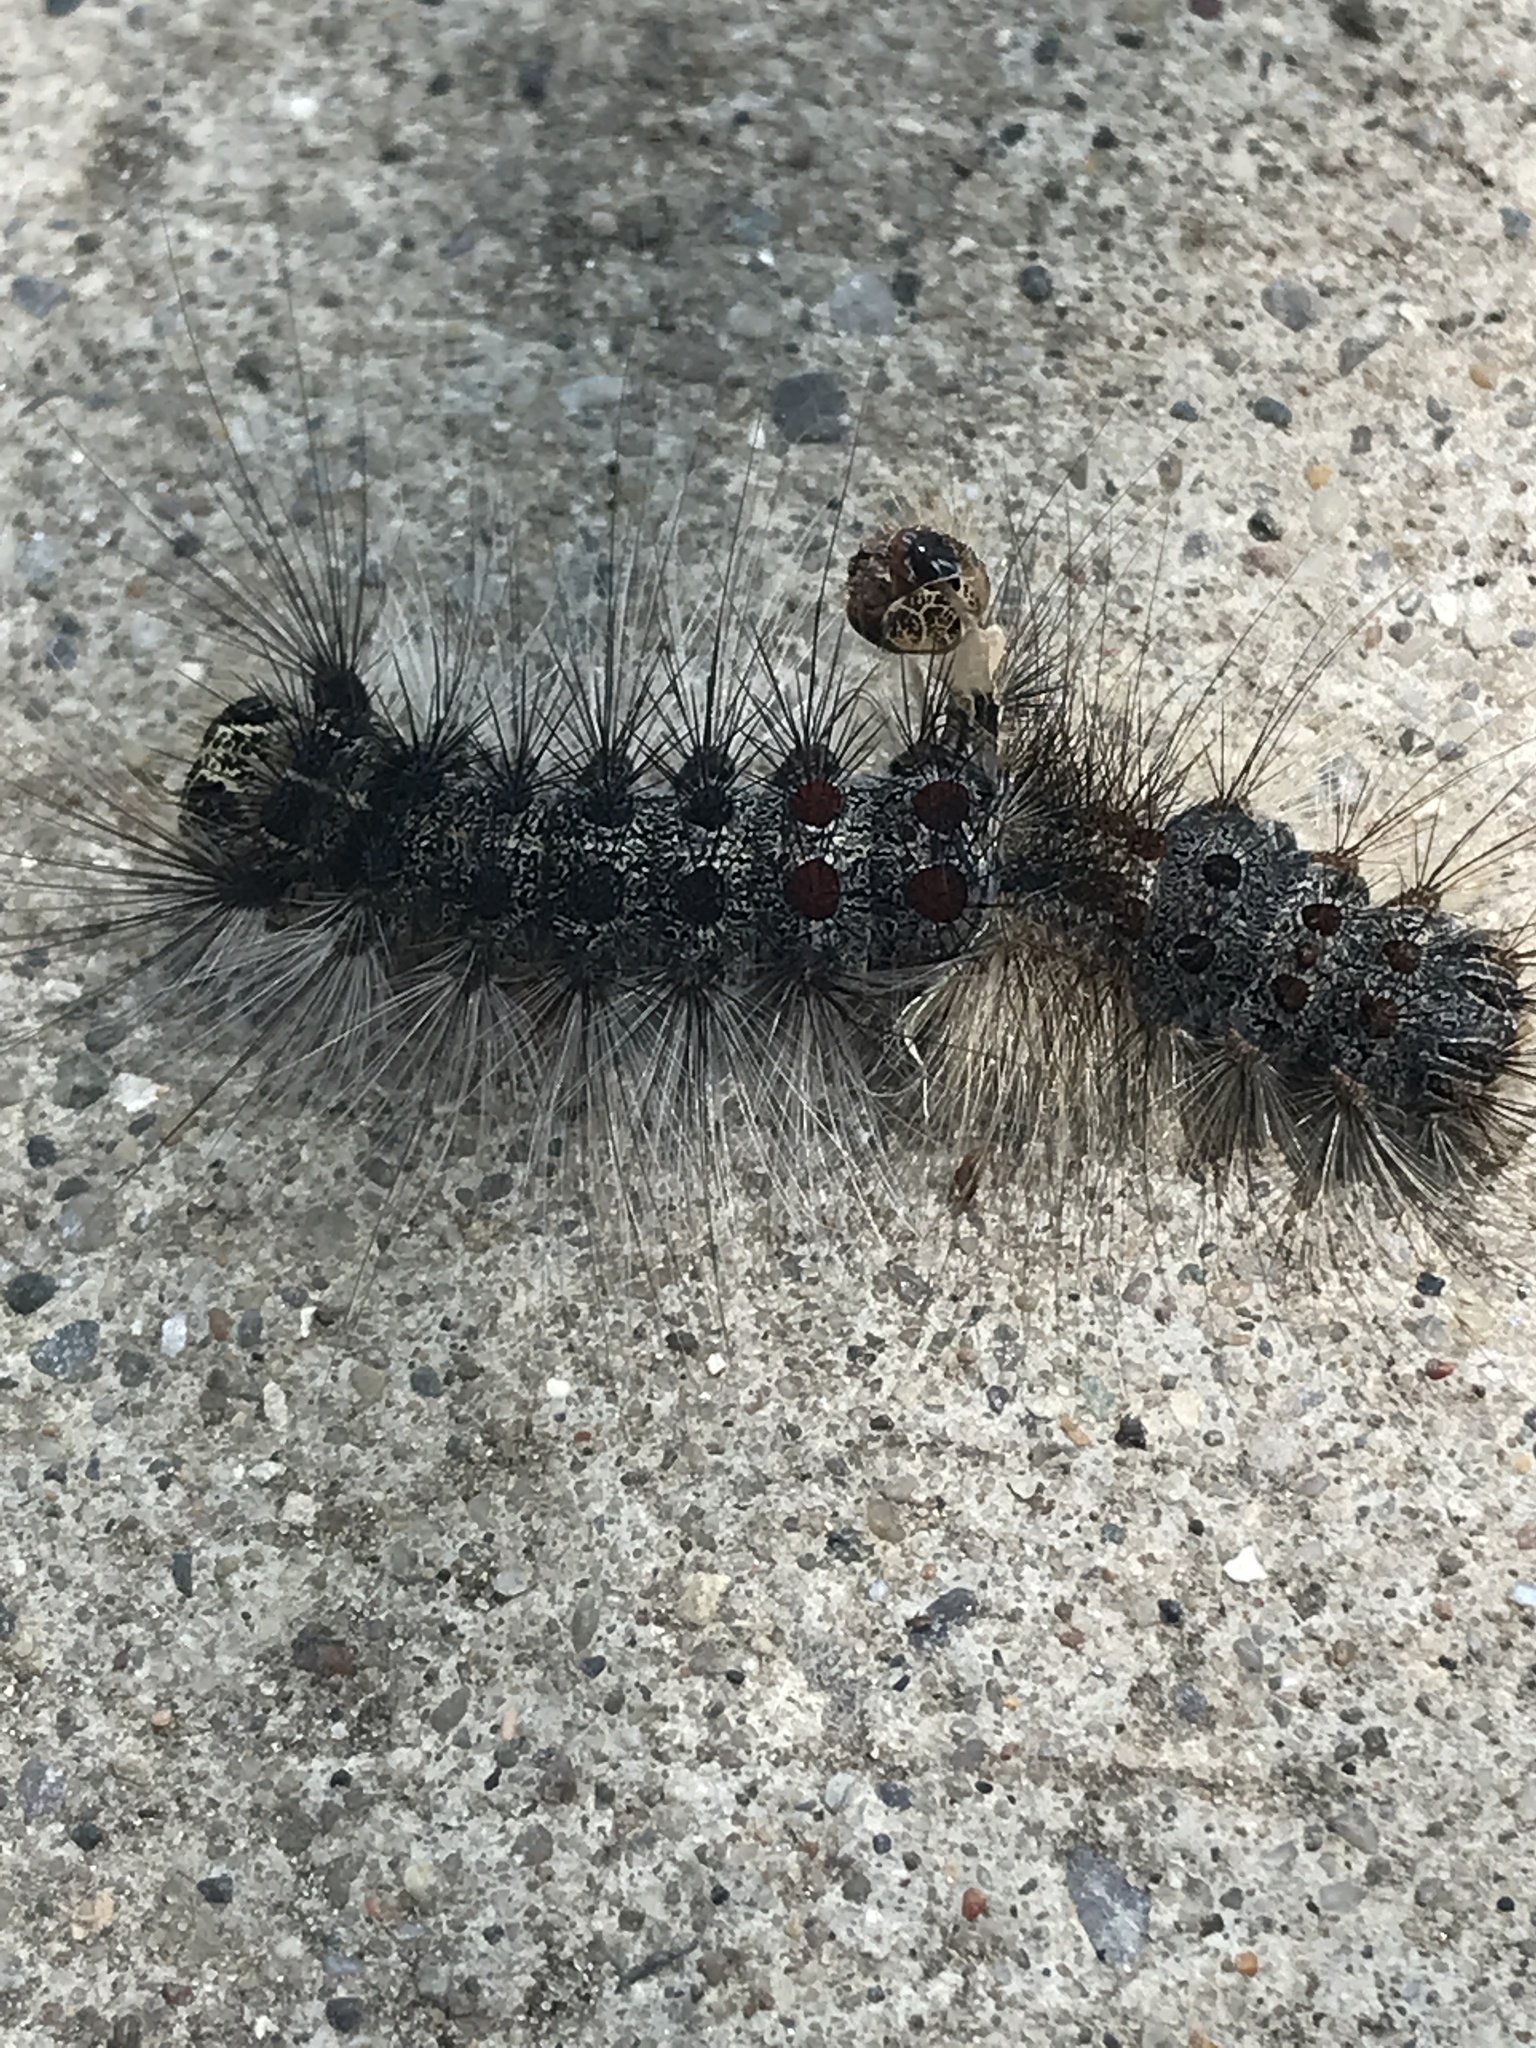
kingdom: Animalia
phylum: Arthropoda
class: Insecta
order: Lepidoptera
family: Erebidae
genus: Lymantria
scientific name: Lymantria dispar
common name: Gypsy moth
